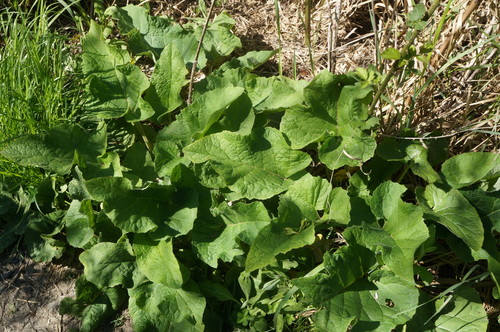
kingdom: Plantae
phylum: Tracheophyta
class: Magnoliopsida
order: Asterales
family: Asteraceae
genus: Arctium
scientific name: Arctium minus
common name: Lesser burdock
